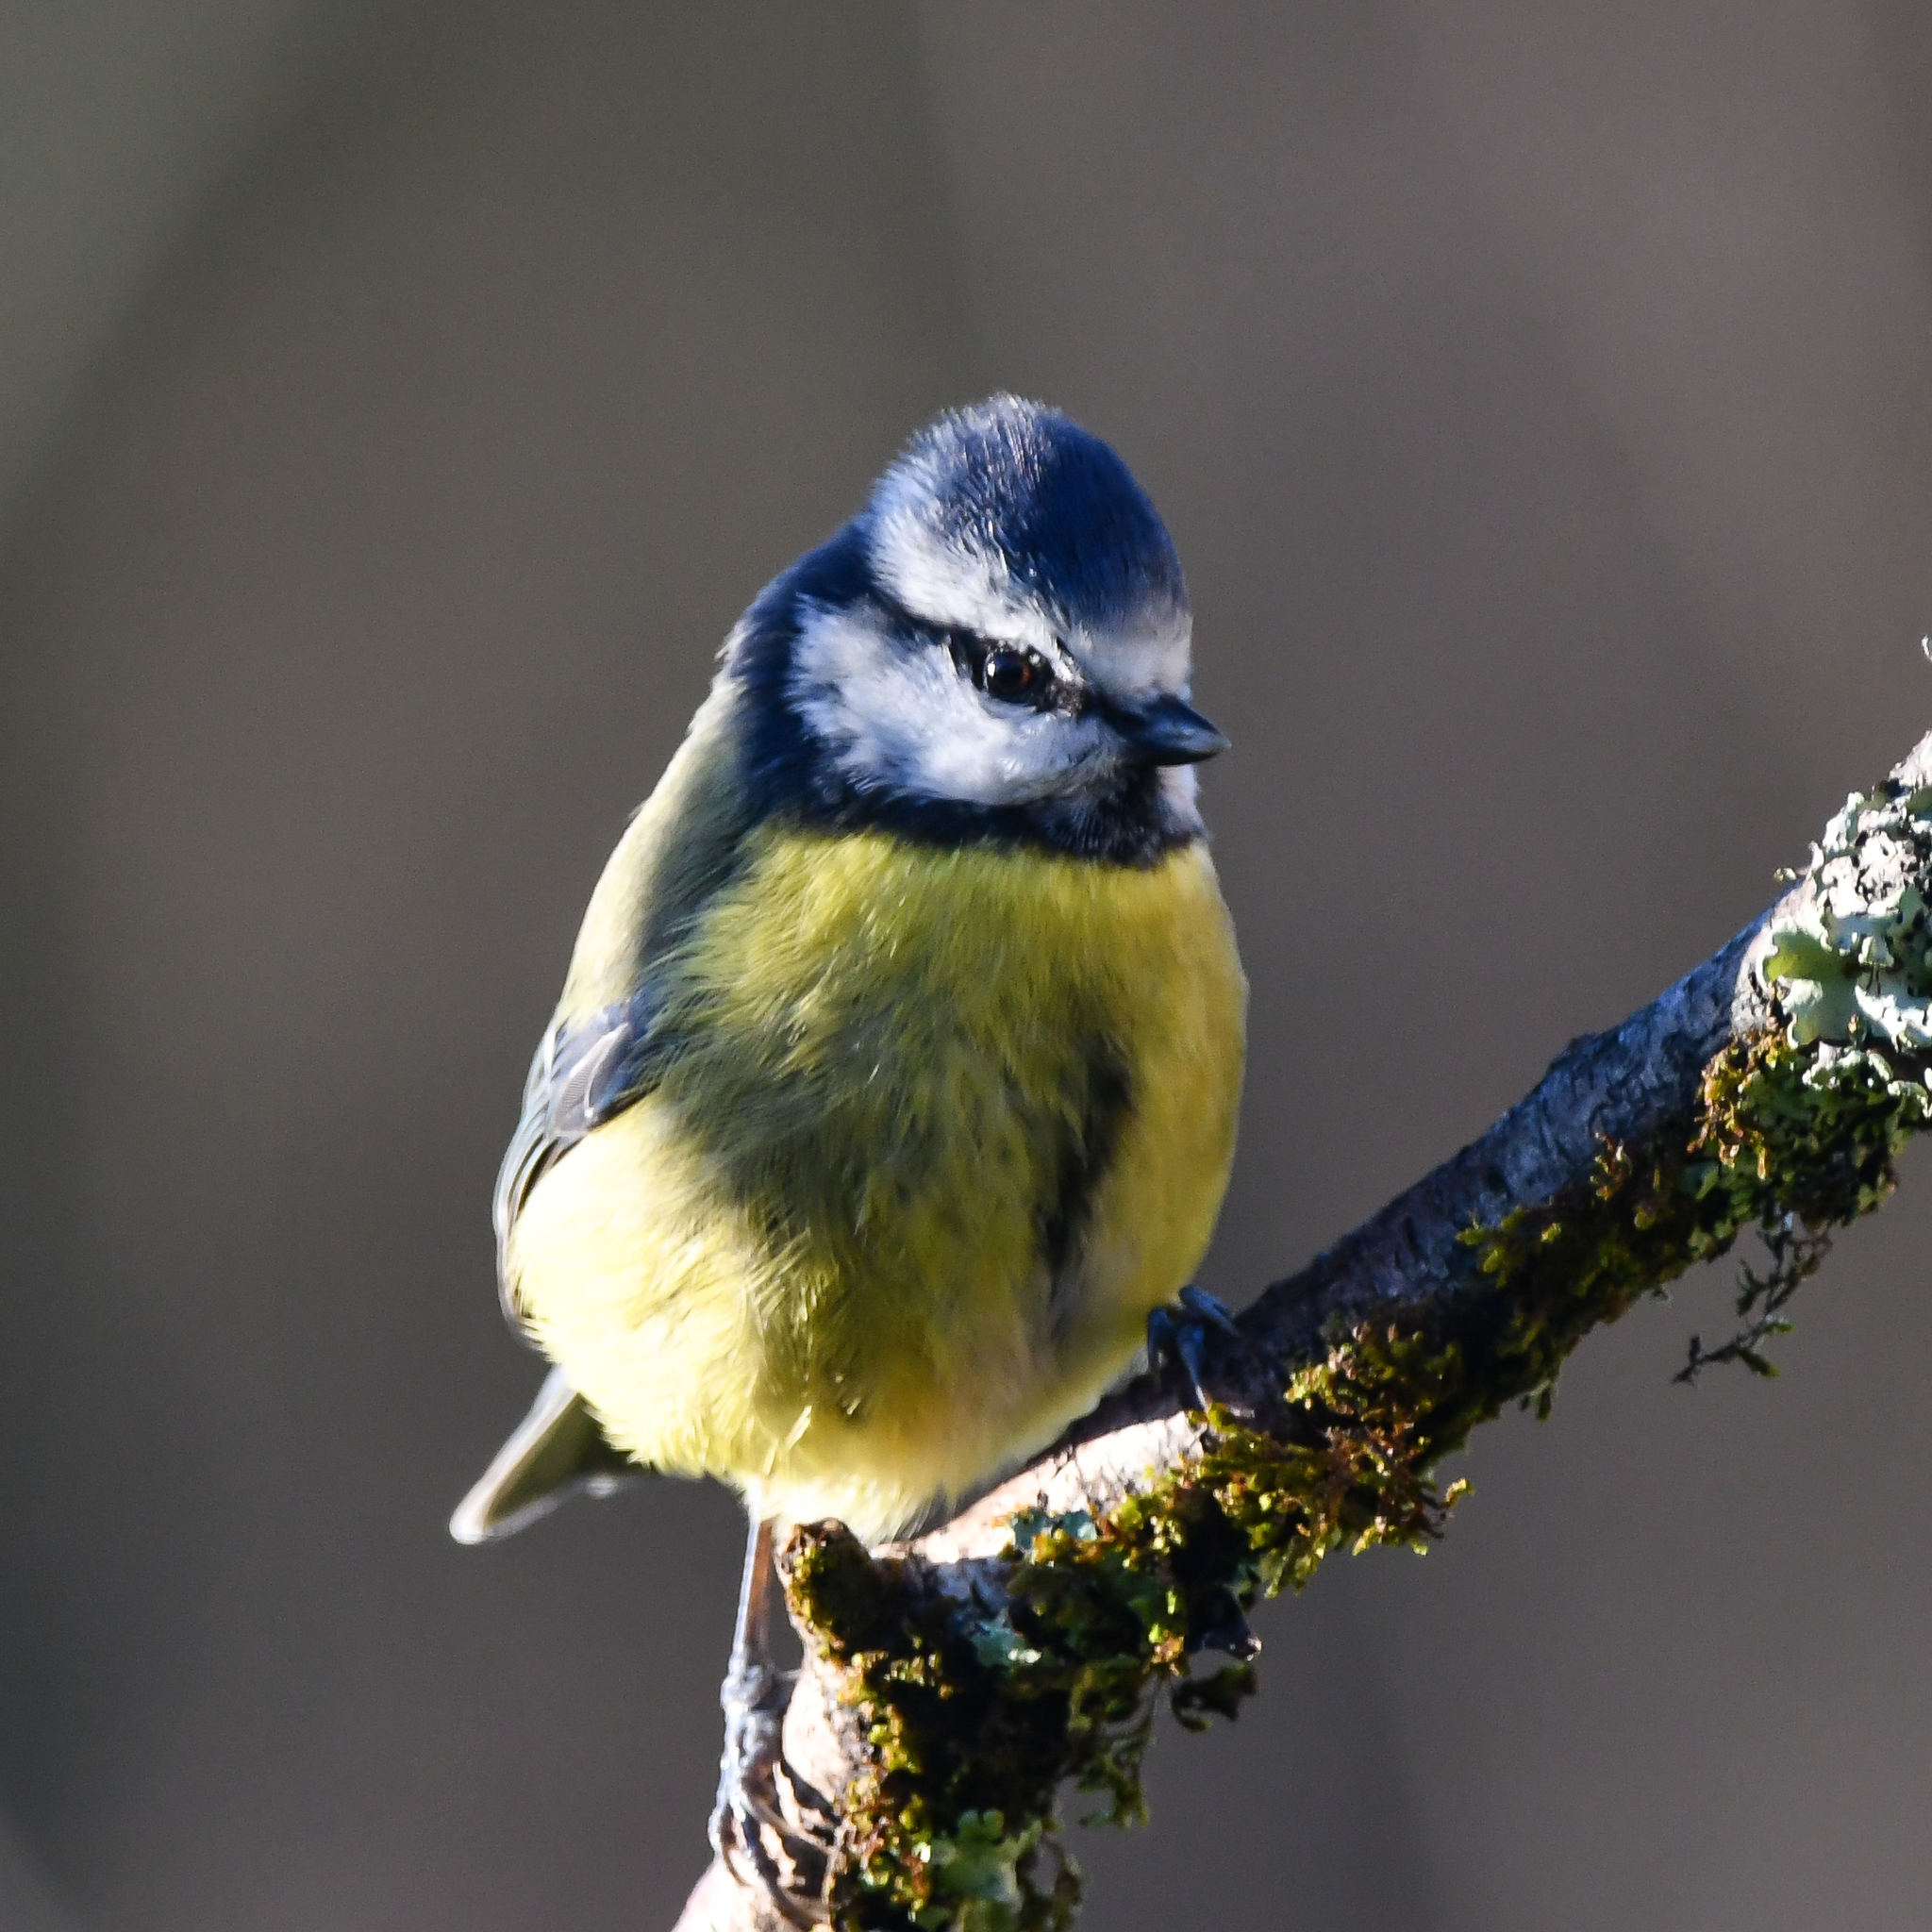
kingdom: Animalia
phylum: Chordata
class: Aves
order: Passeriformes
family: Paridae
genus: Cyanistes
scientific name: Cyanistes caeruleus
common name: Eurasian blue tit
